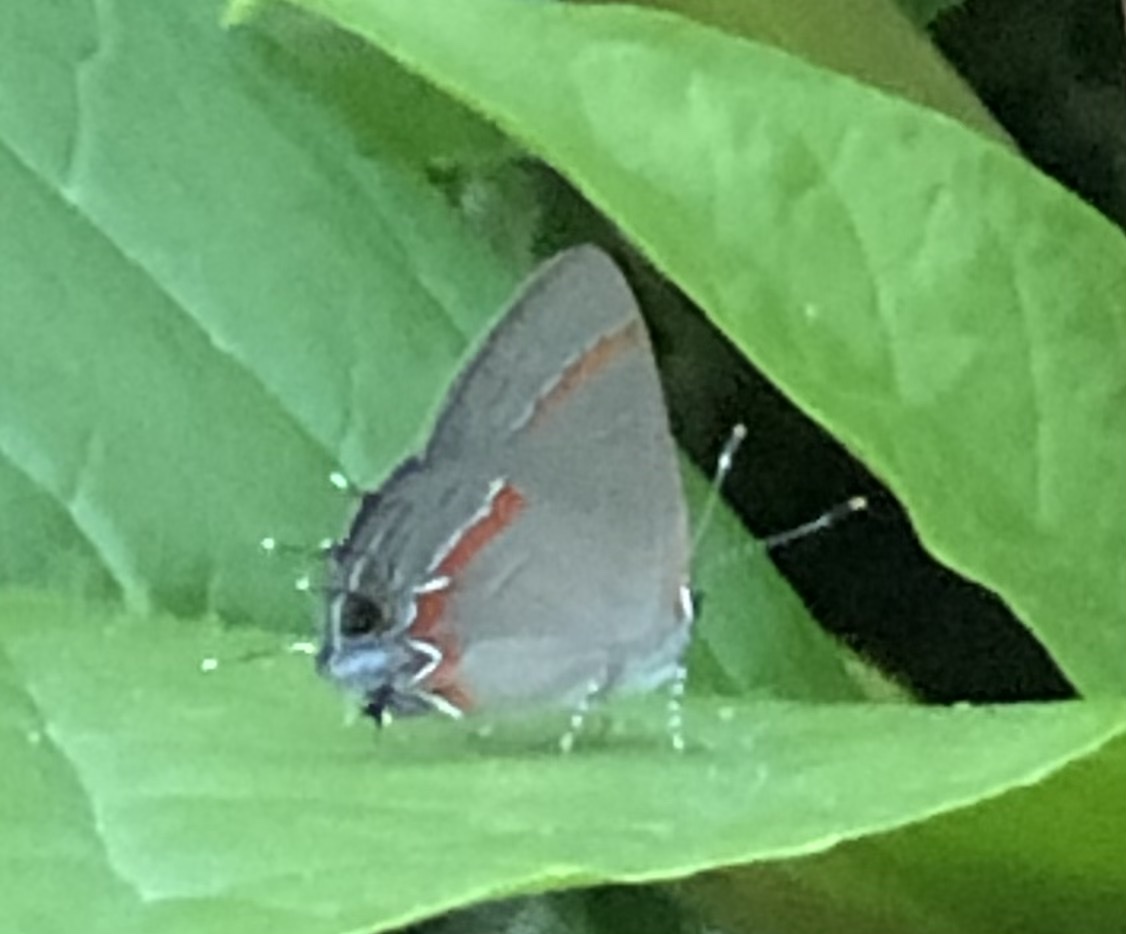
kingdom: Animalia
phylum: Arthropoda
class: Insecta
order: Lepidoptera
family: Lycaenidae
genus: Calycopis
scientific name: Calycopis cecrops
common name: Red-banded hairstreak
